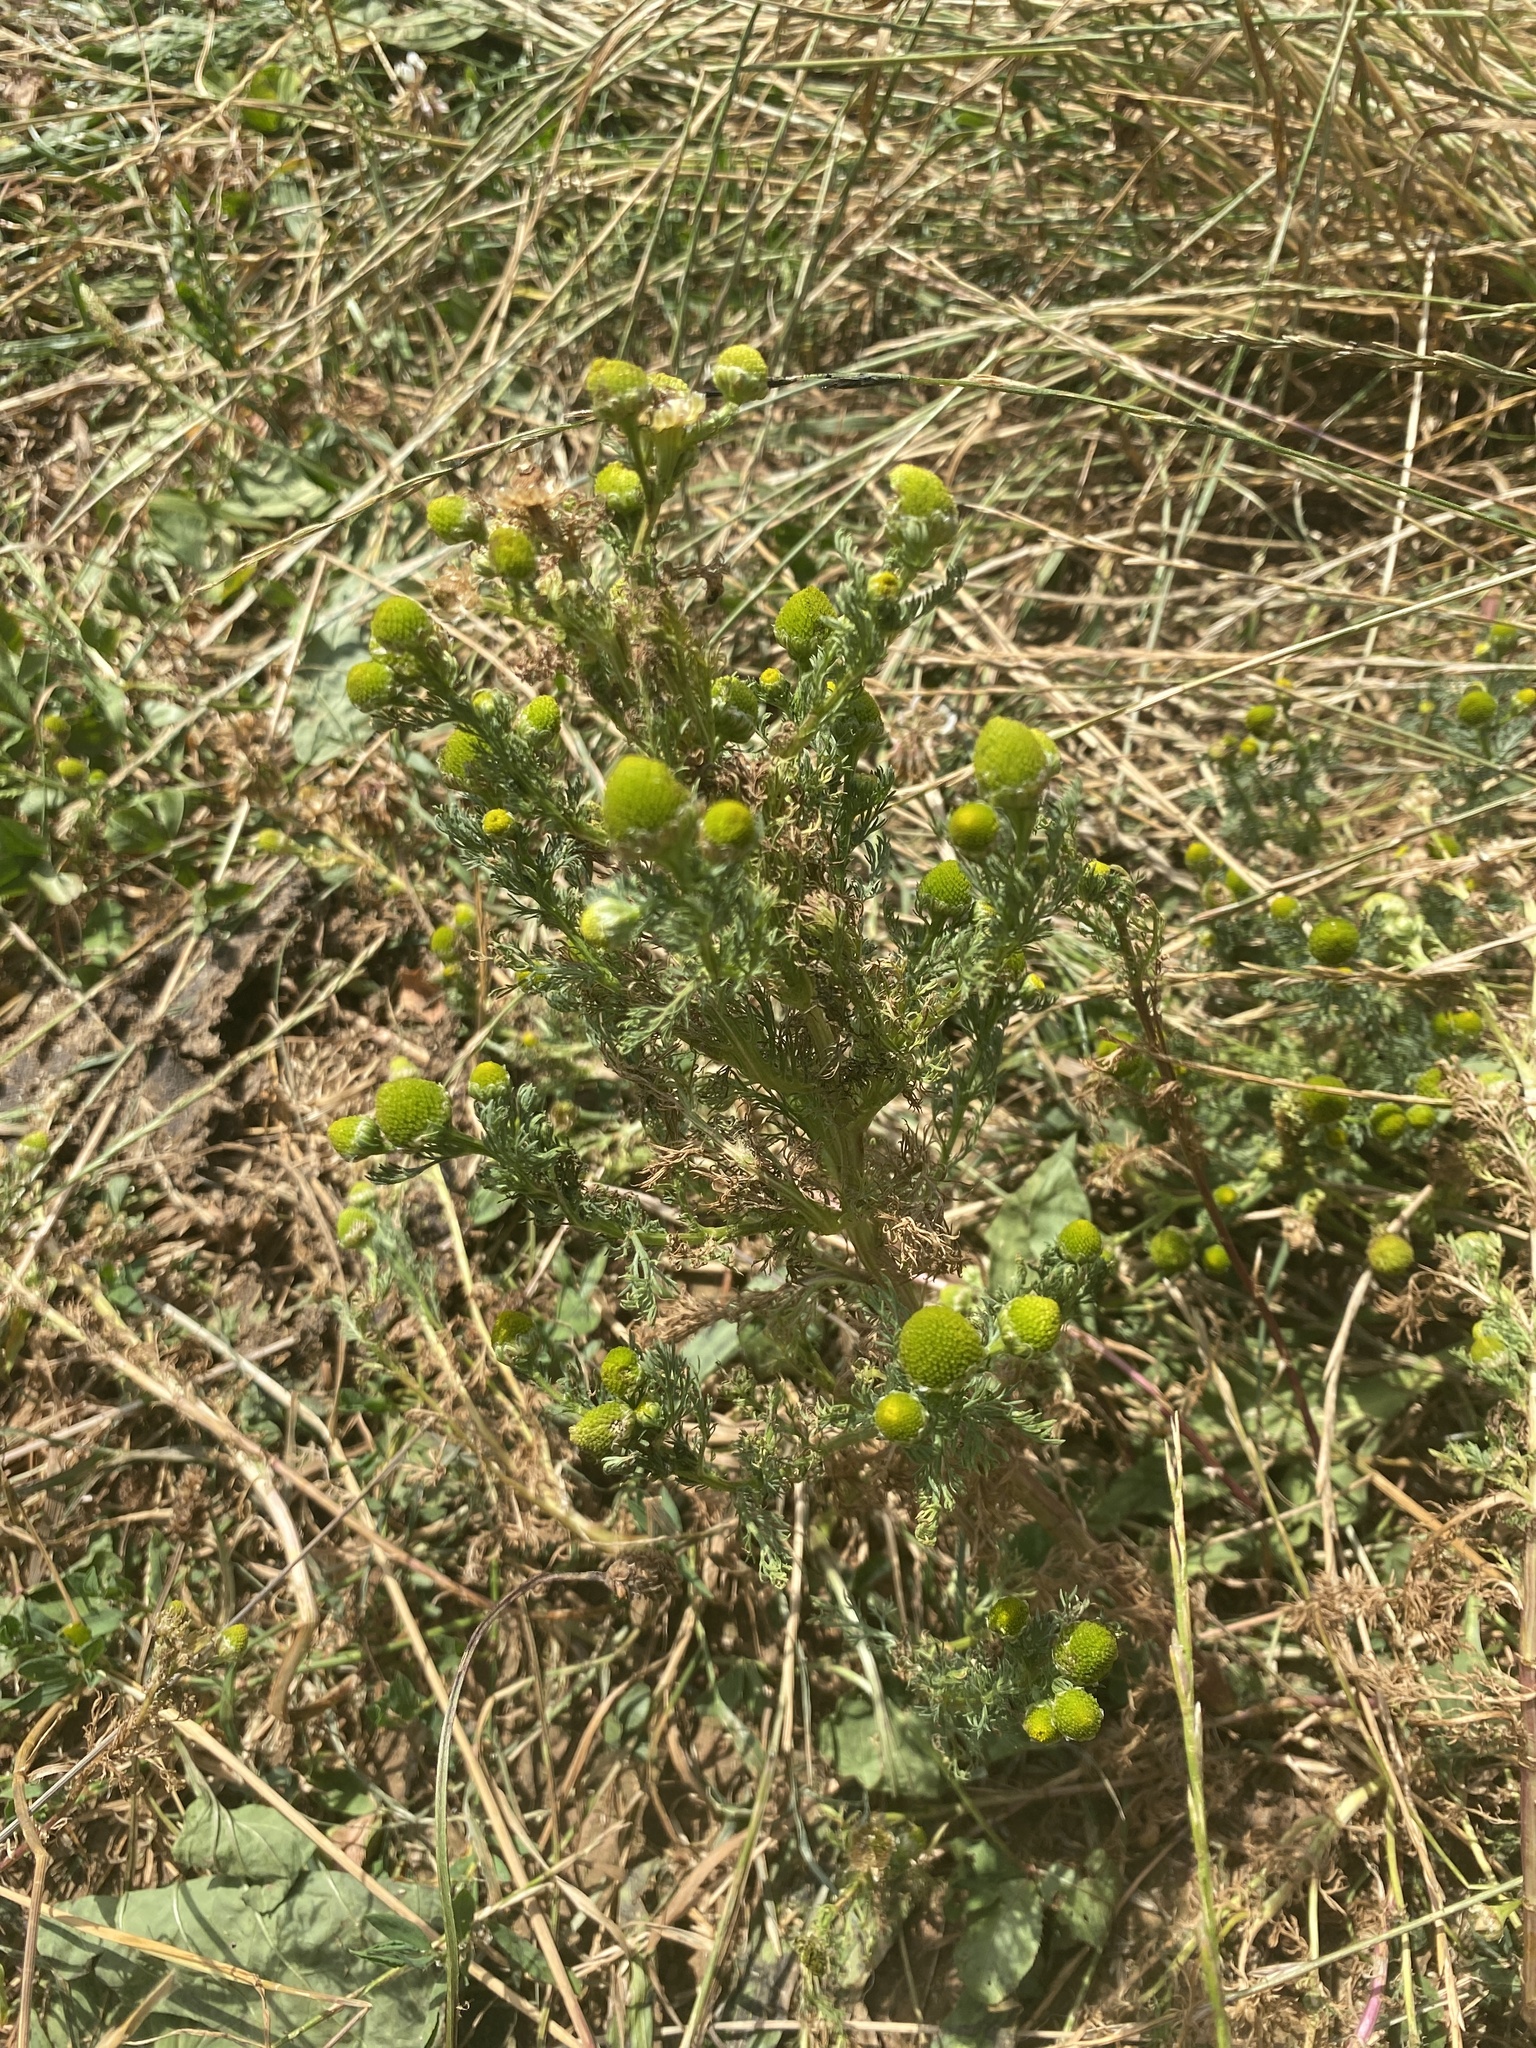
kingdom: Plantae
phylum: Tracheophyta
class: Magnoliopsida
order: Asterales
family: Asteraceae
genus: Matricaria
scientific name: Matricaria discoidea
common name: Disc mayweed
